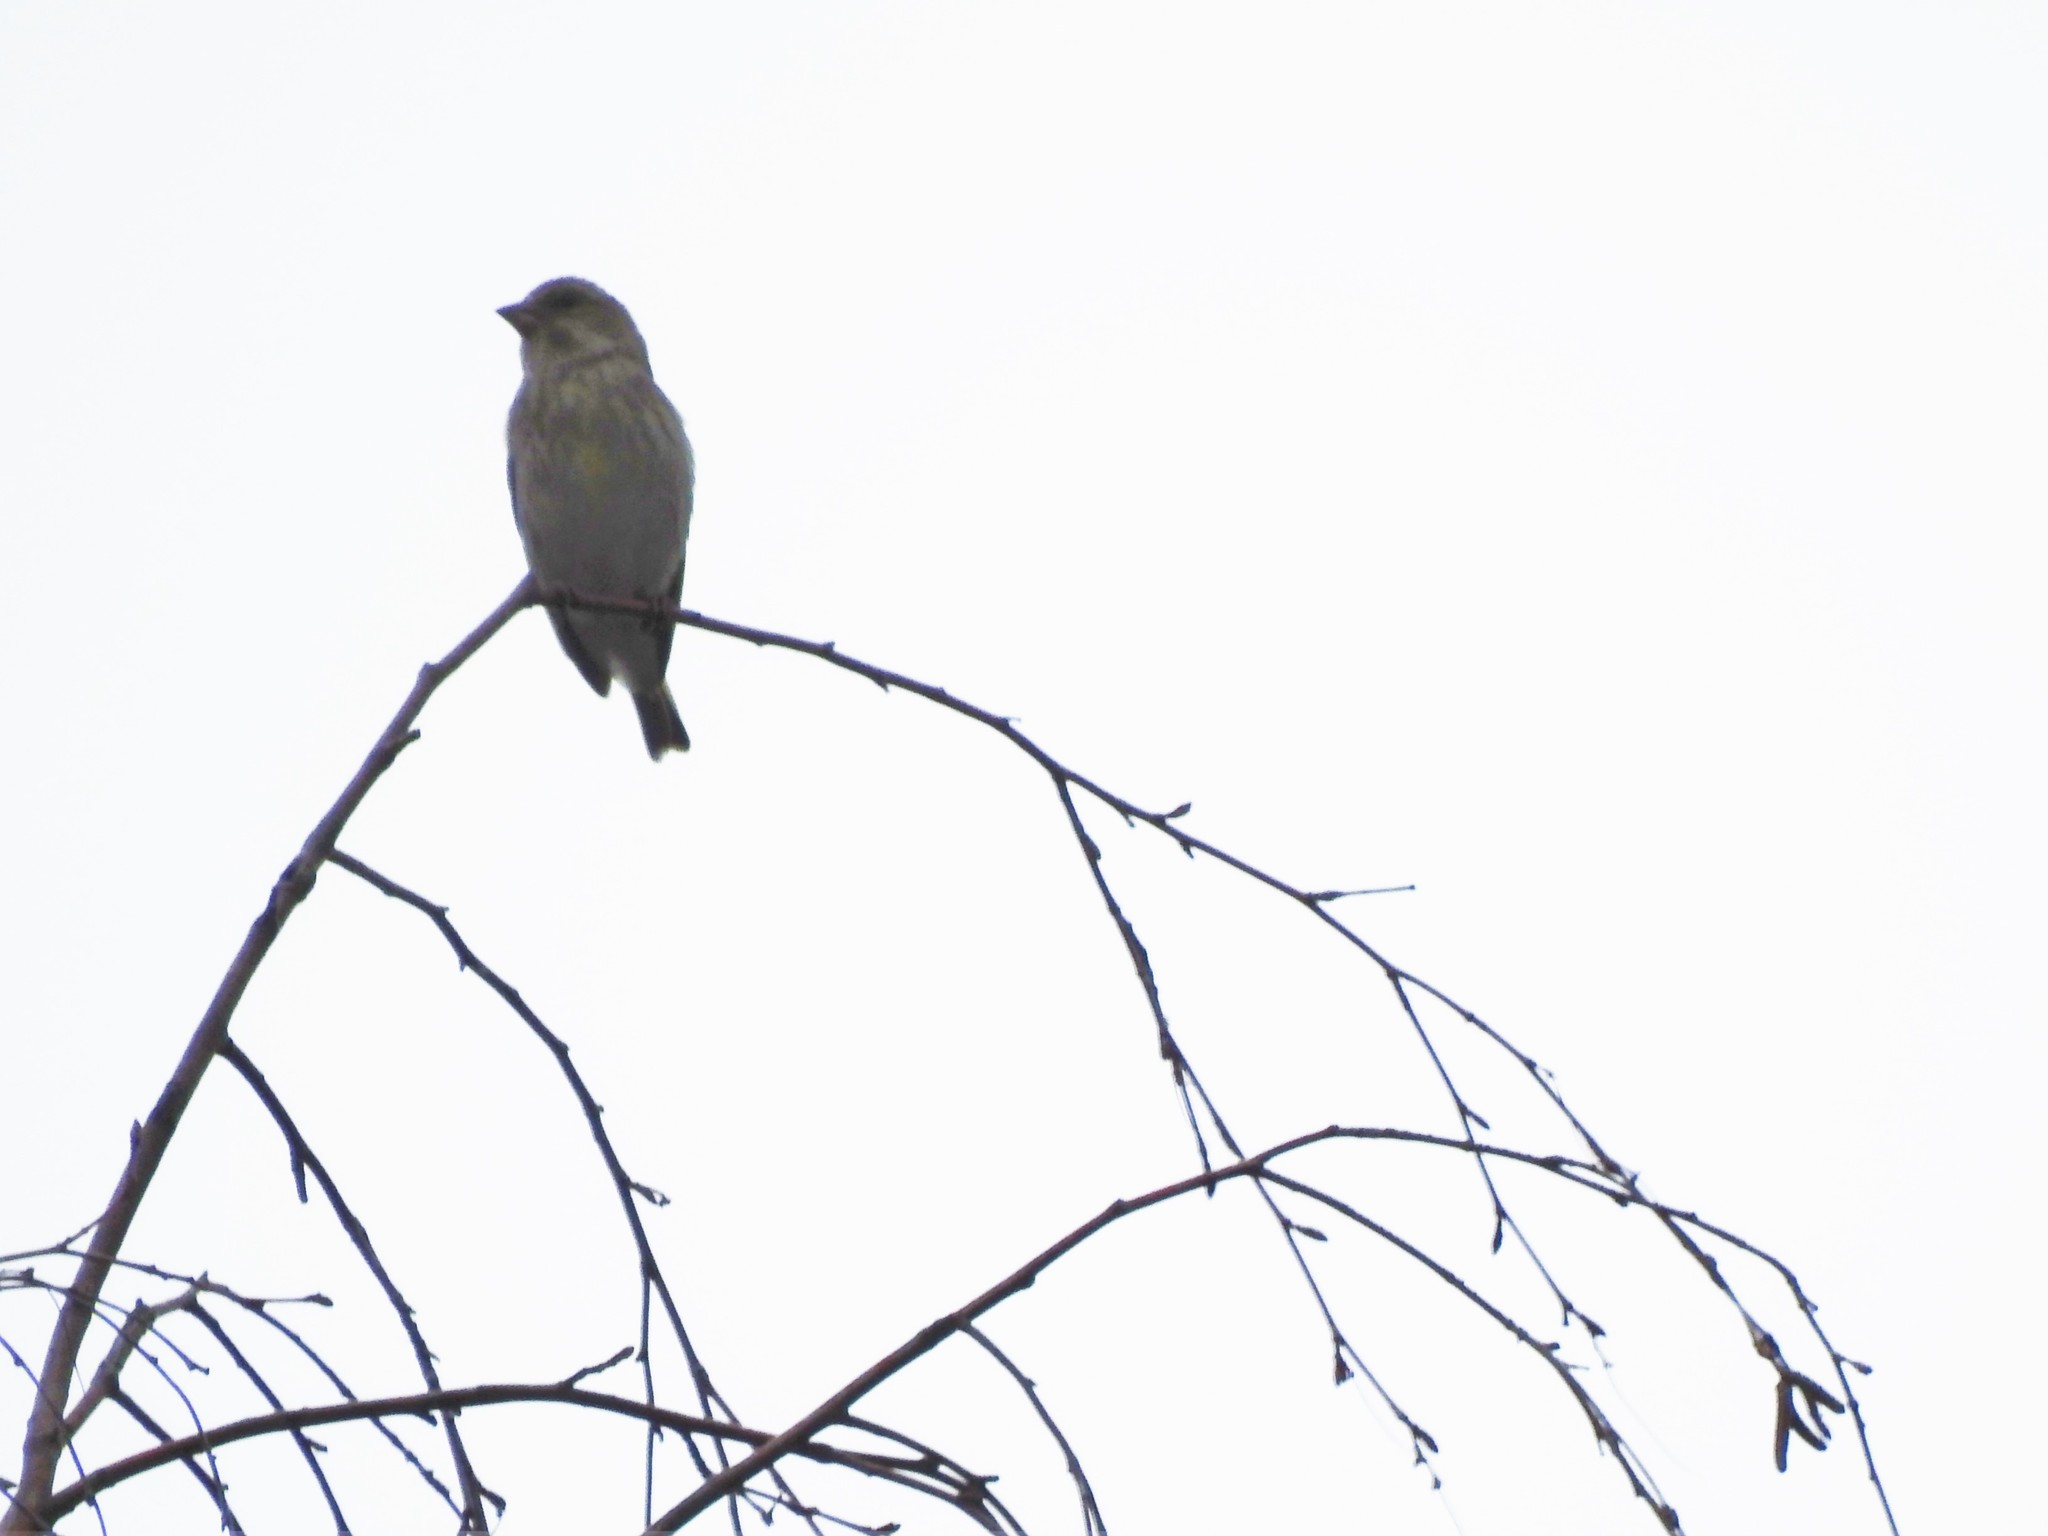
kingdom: Plantae
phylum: Tracheophyta
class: Liliopsida
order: Poales
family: Poaceae
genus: Chloris
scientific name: Chloris chloris
